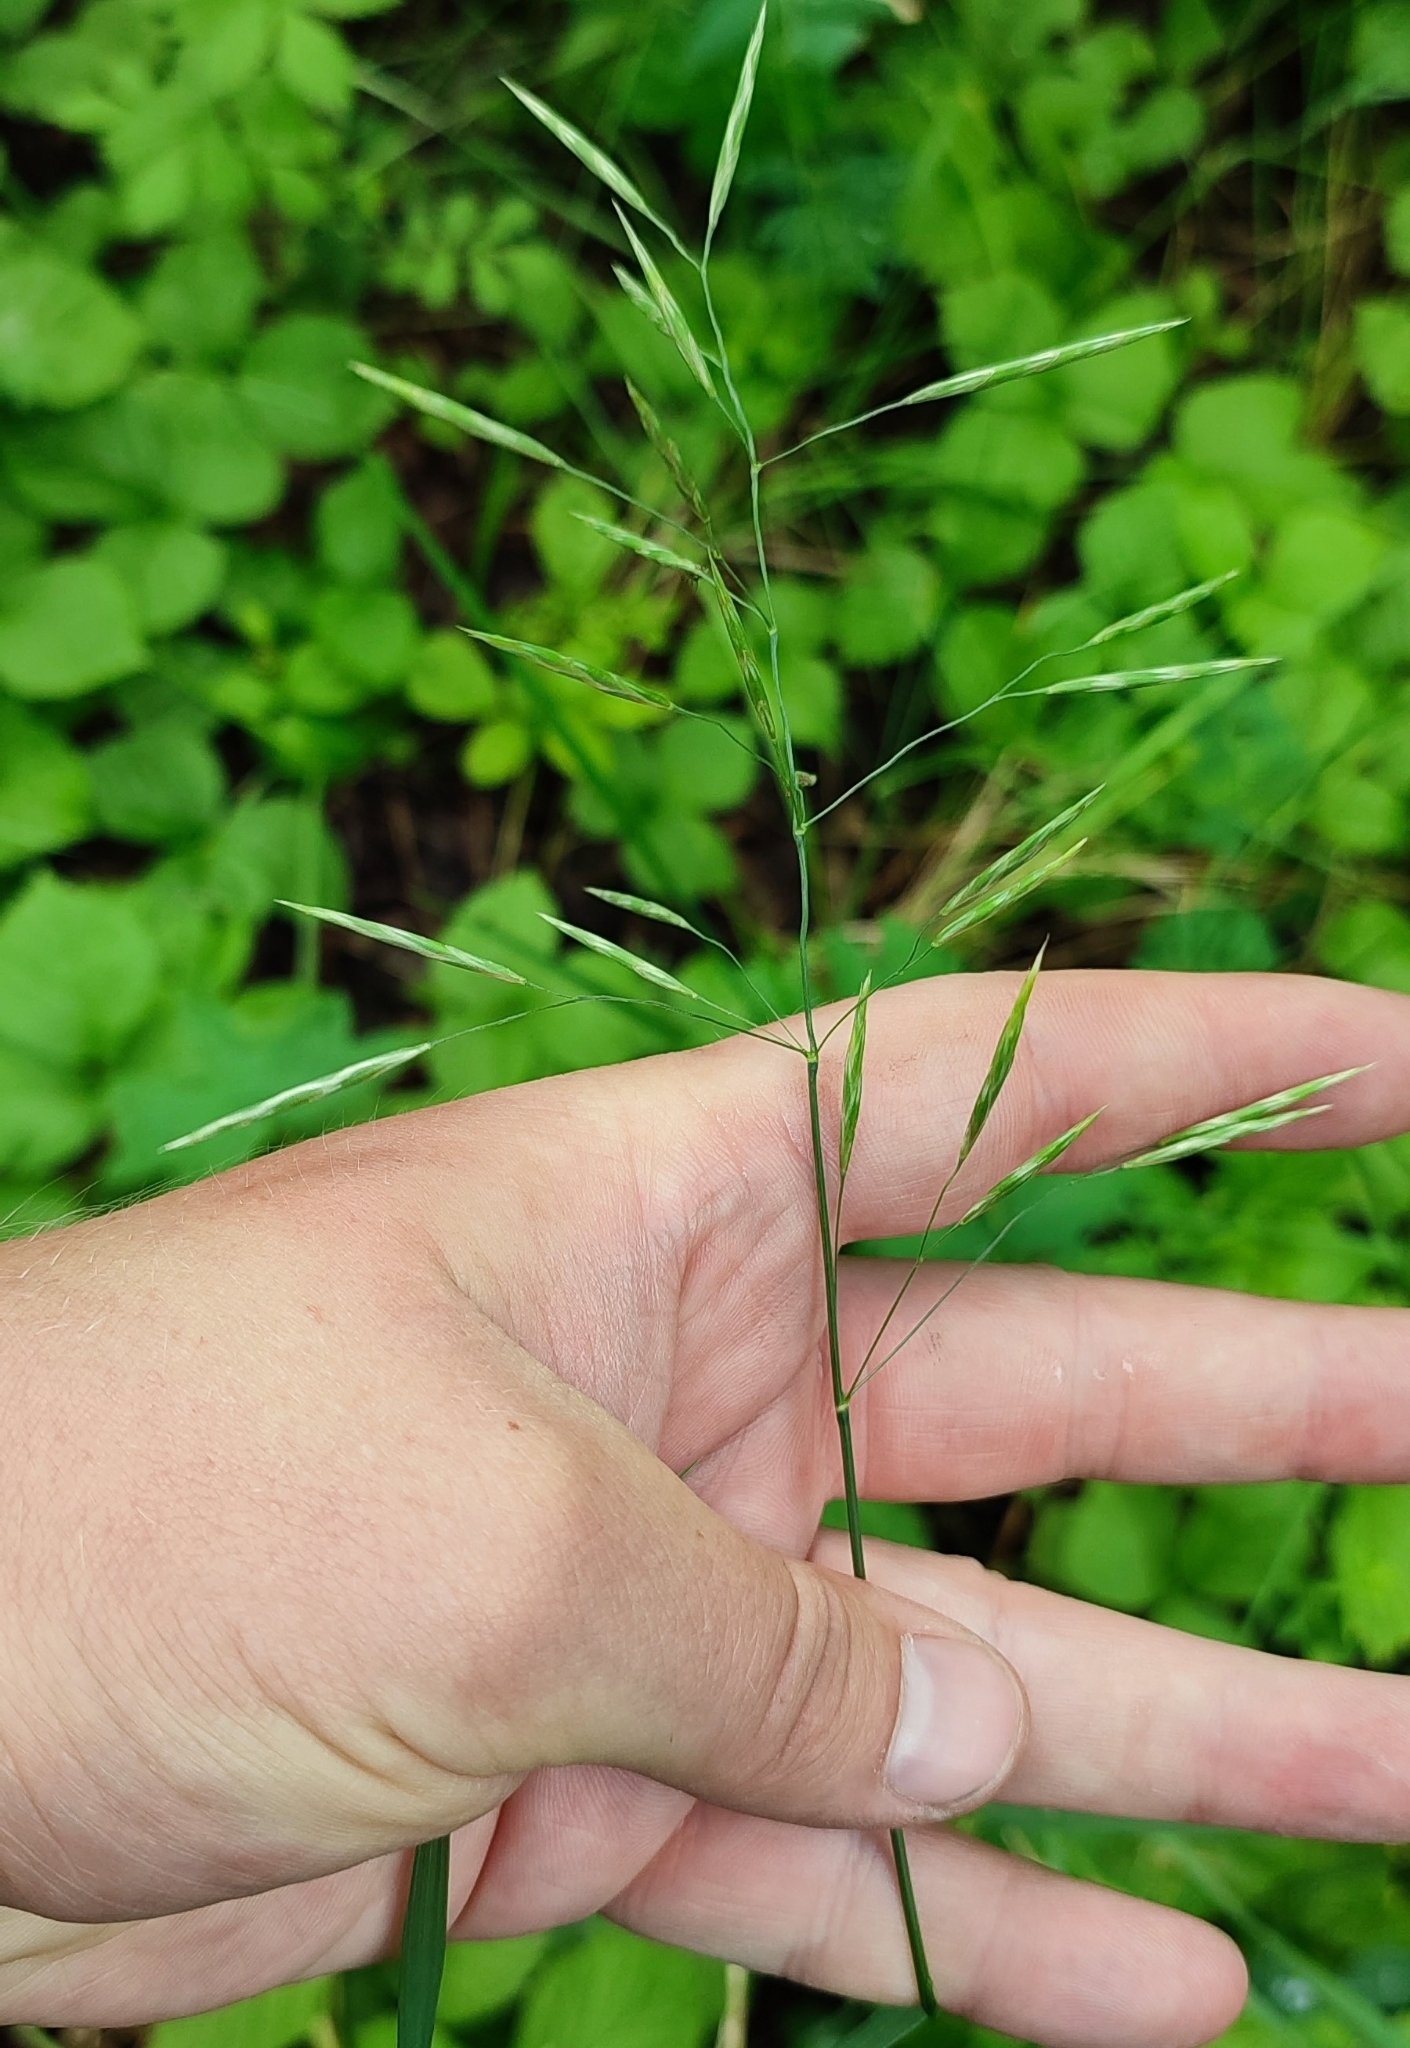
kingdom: Plantae
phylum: Tracheophyta
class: Liliopsida
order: Poales
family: Poaceae
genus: Bromus
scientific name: Bromus inermis
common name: Smooth brome
